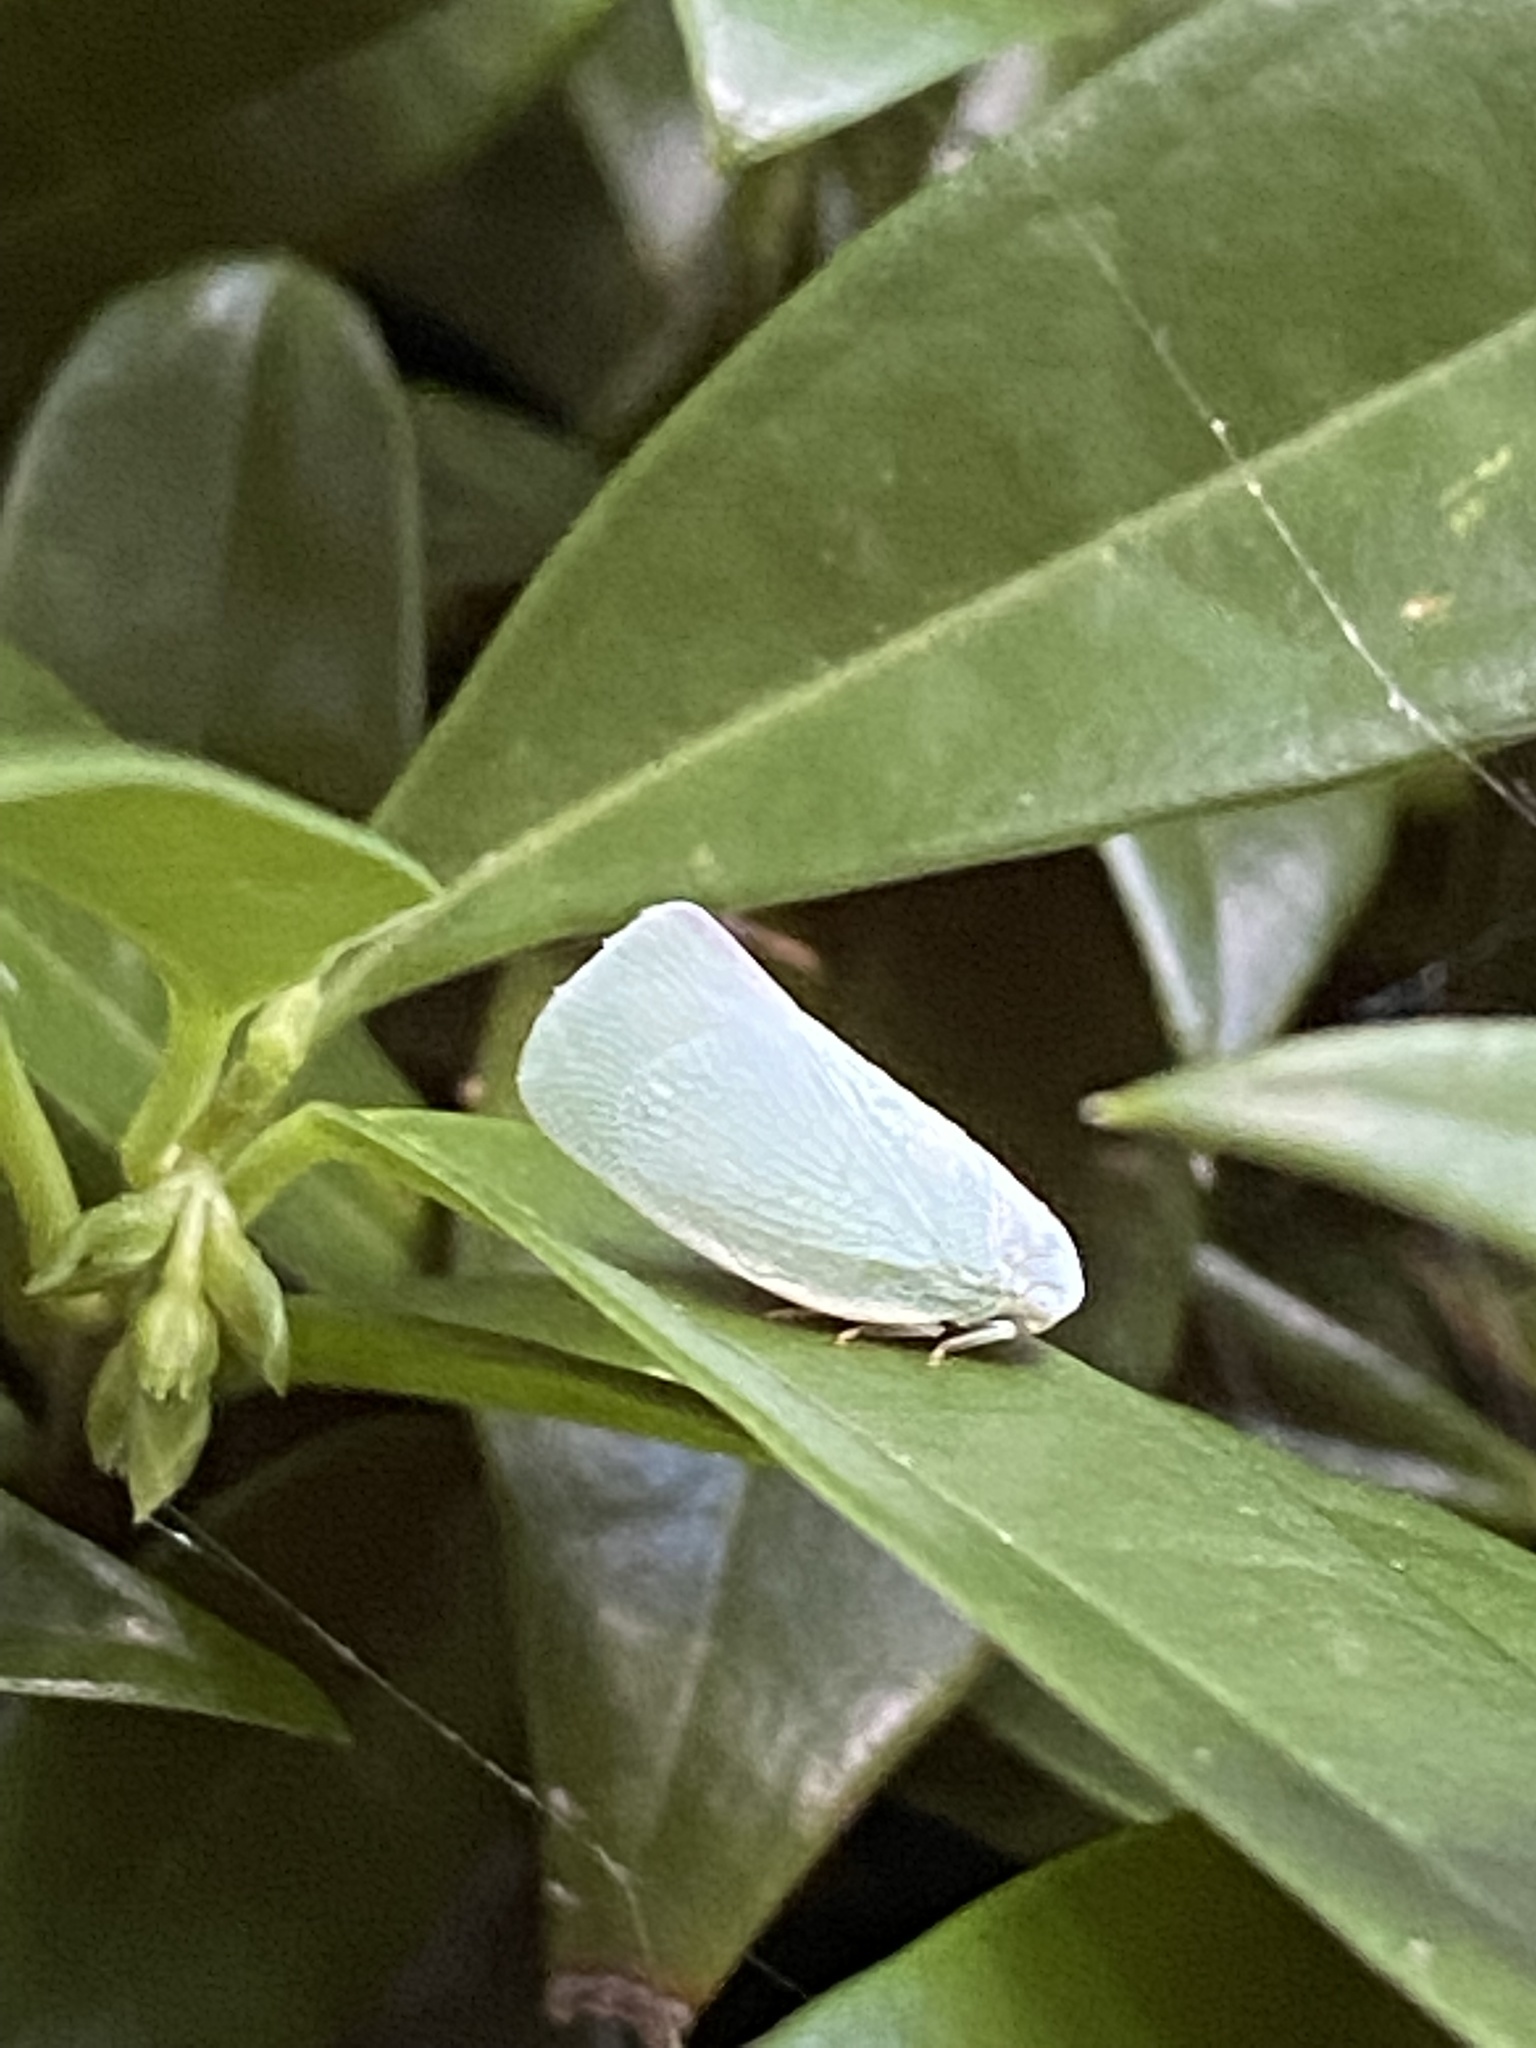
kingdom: Animalia
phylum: Arthropoda
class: Insecta
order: Hemiptera
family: Flatidae
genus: Flatormenis
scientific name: Flatormenis proxima
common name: Northern flatid planthopper
